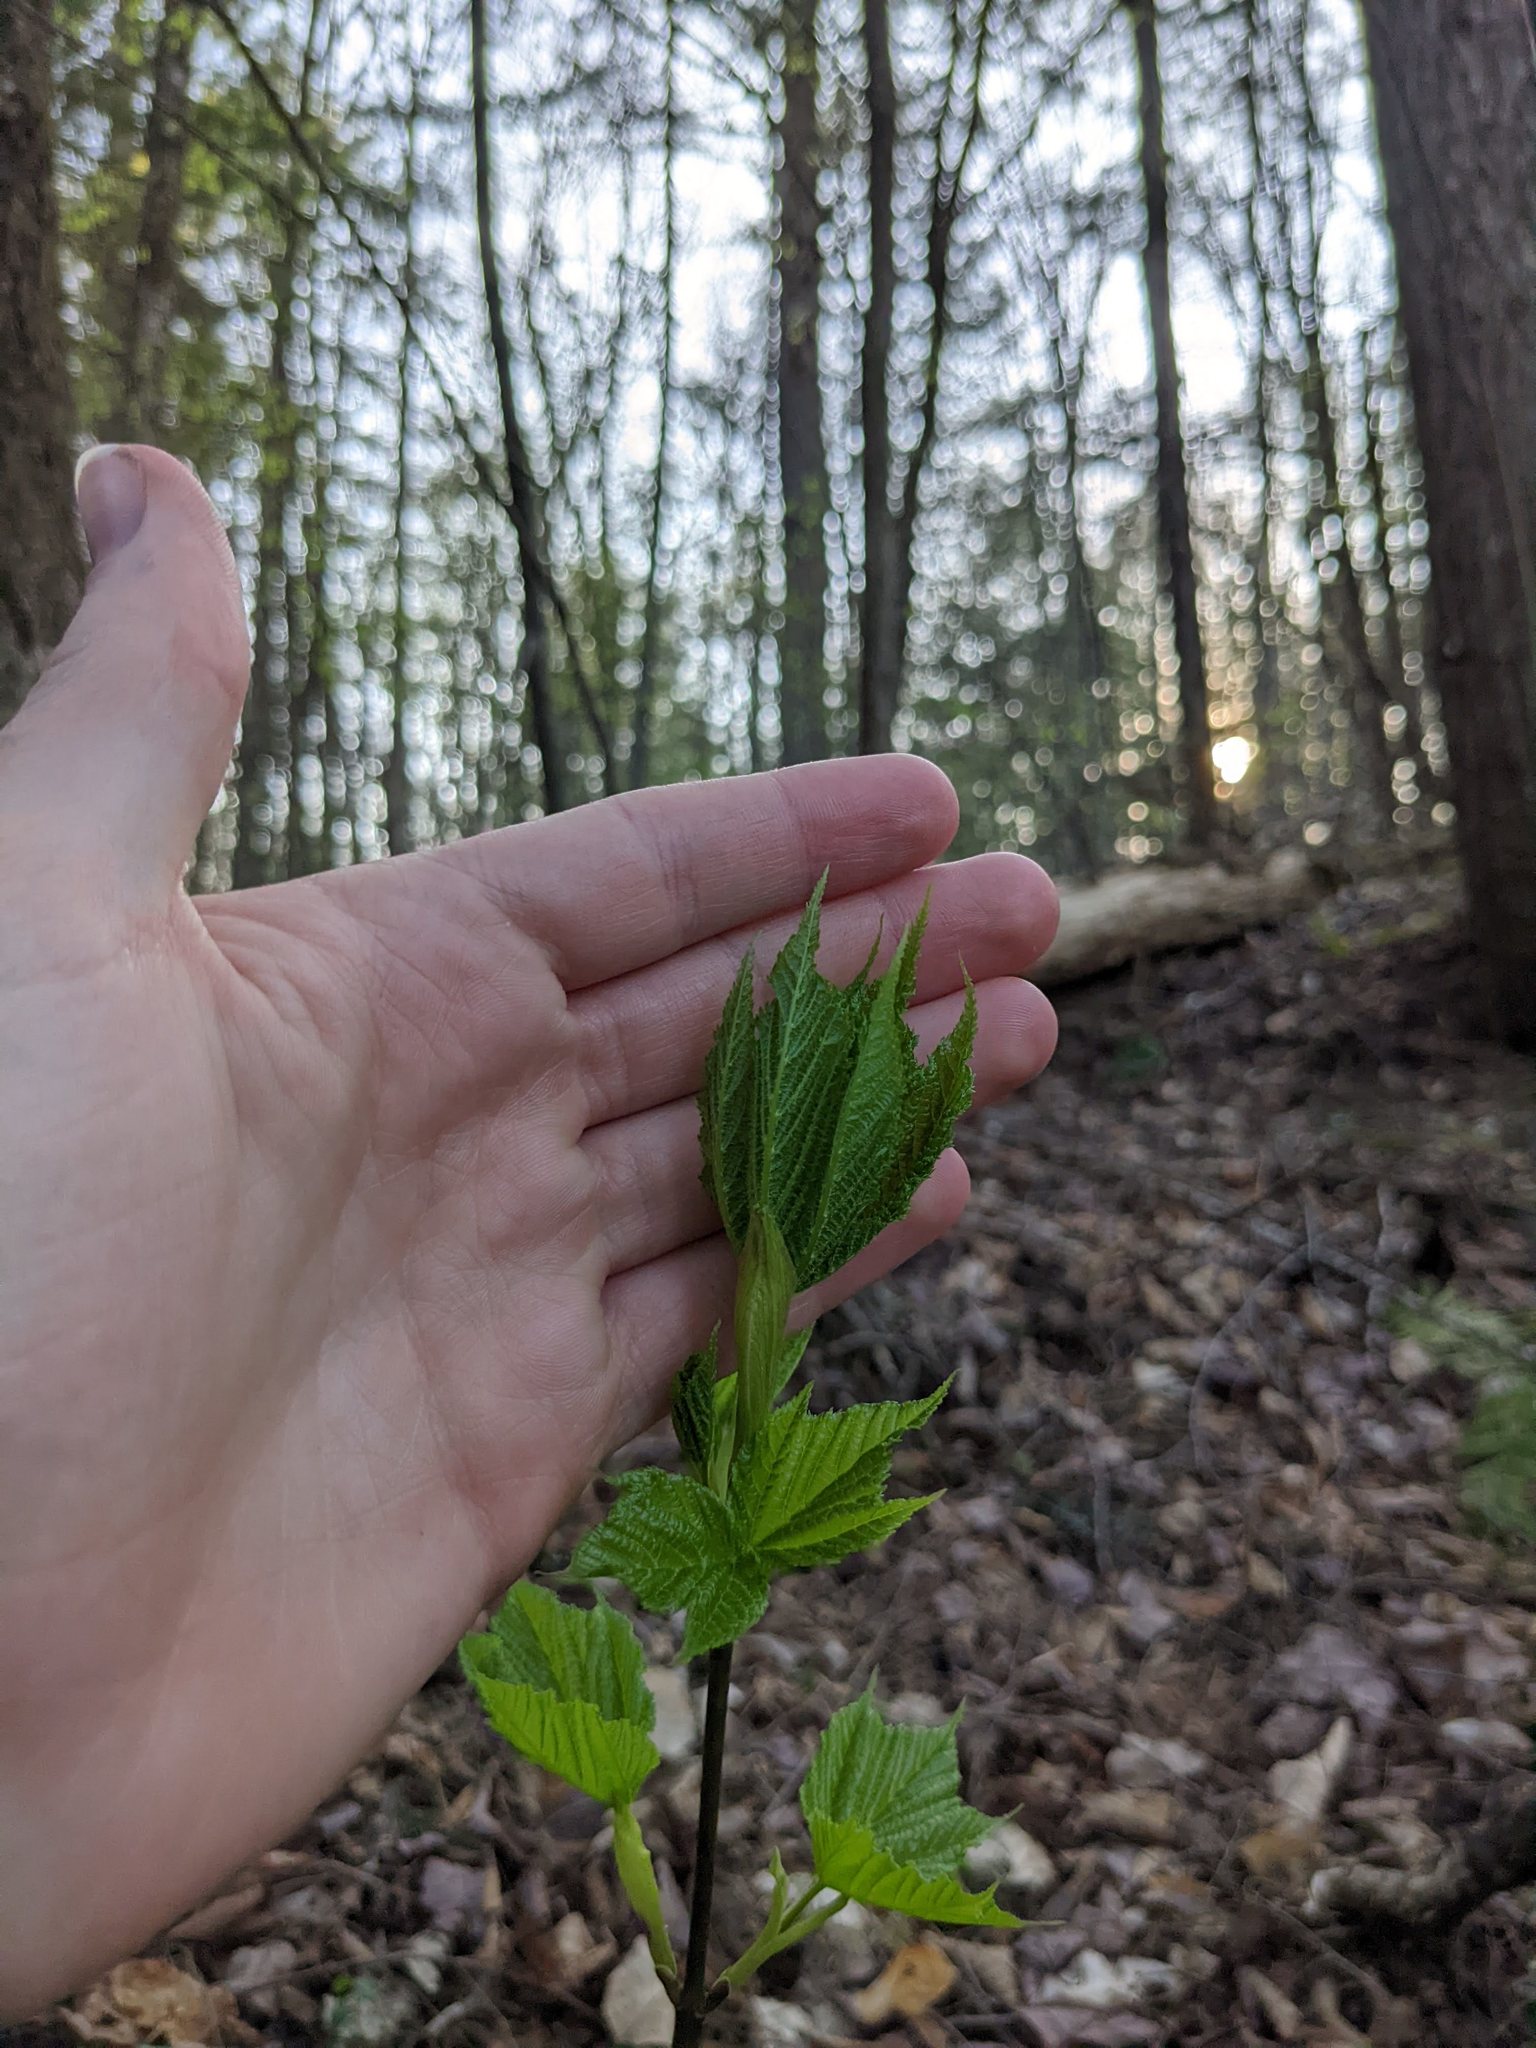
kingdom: Plantae
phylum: Tracheophyta
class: Magnoliopsida
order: Sapindales
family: Sapindaceae
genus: Acer
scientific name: Acer pensylvanicum
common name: Moosewood
